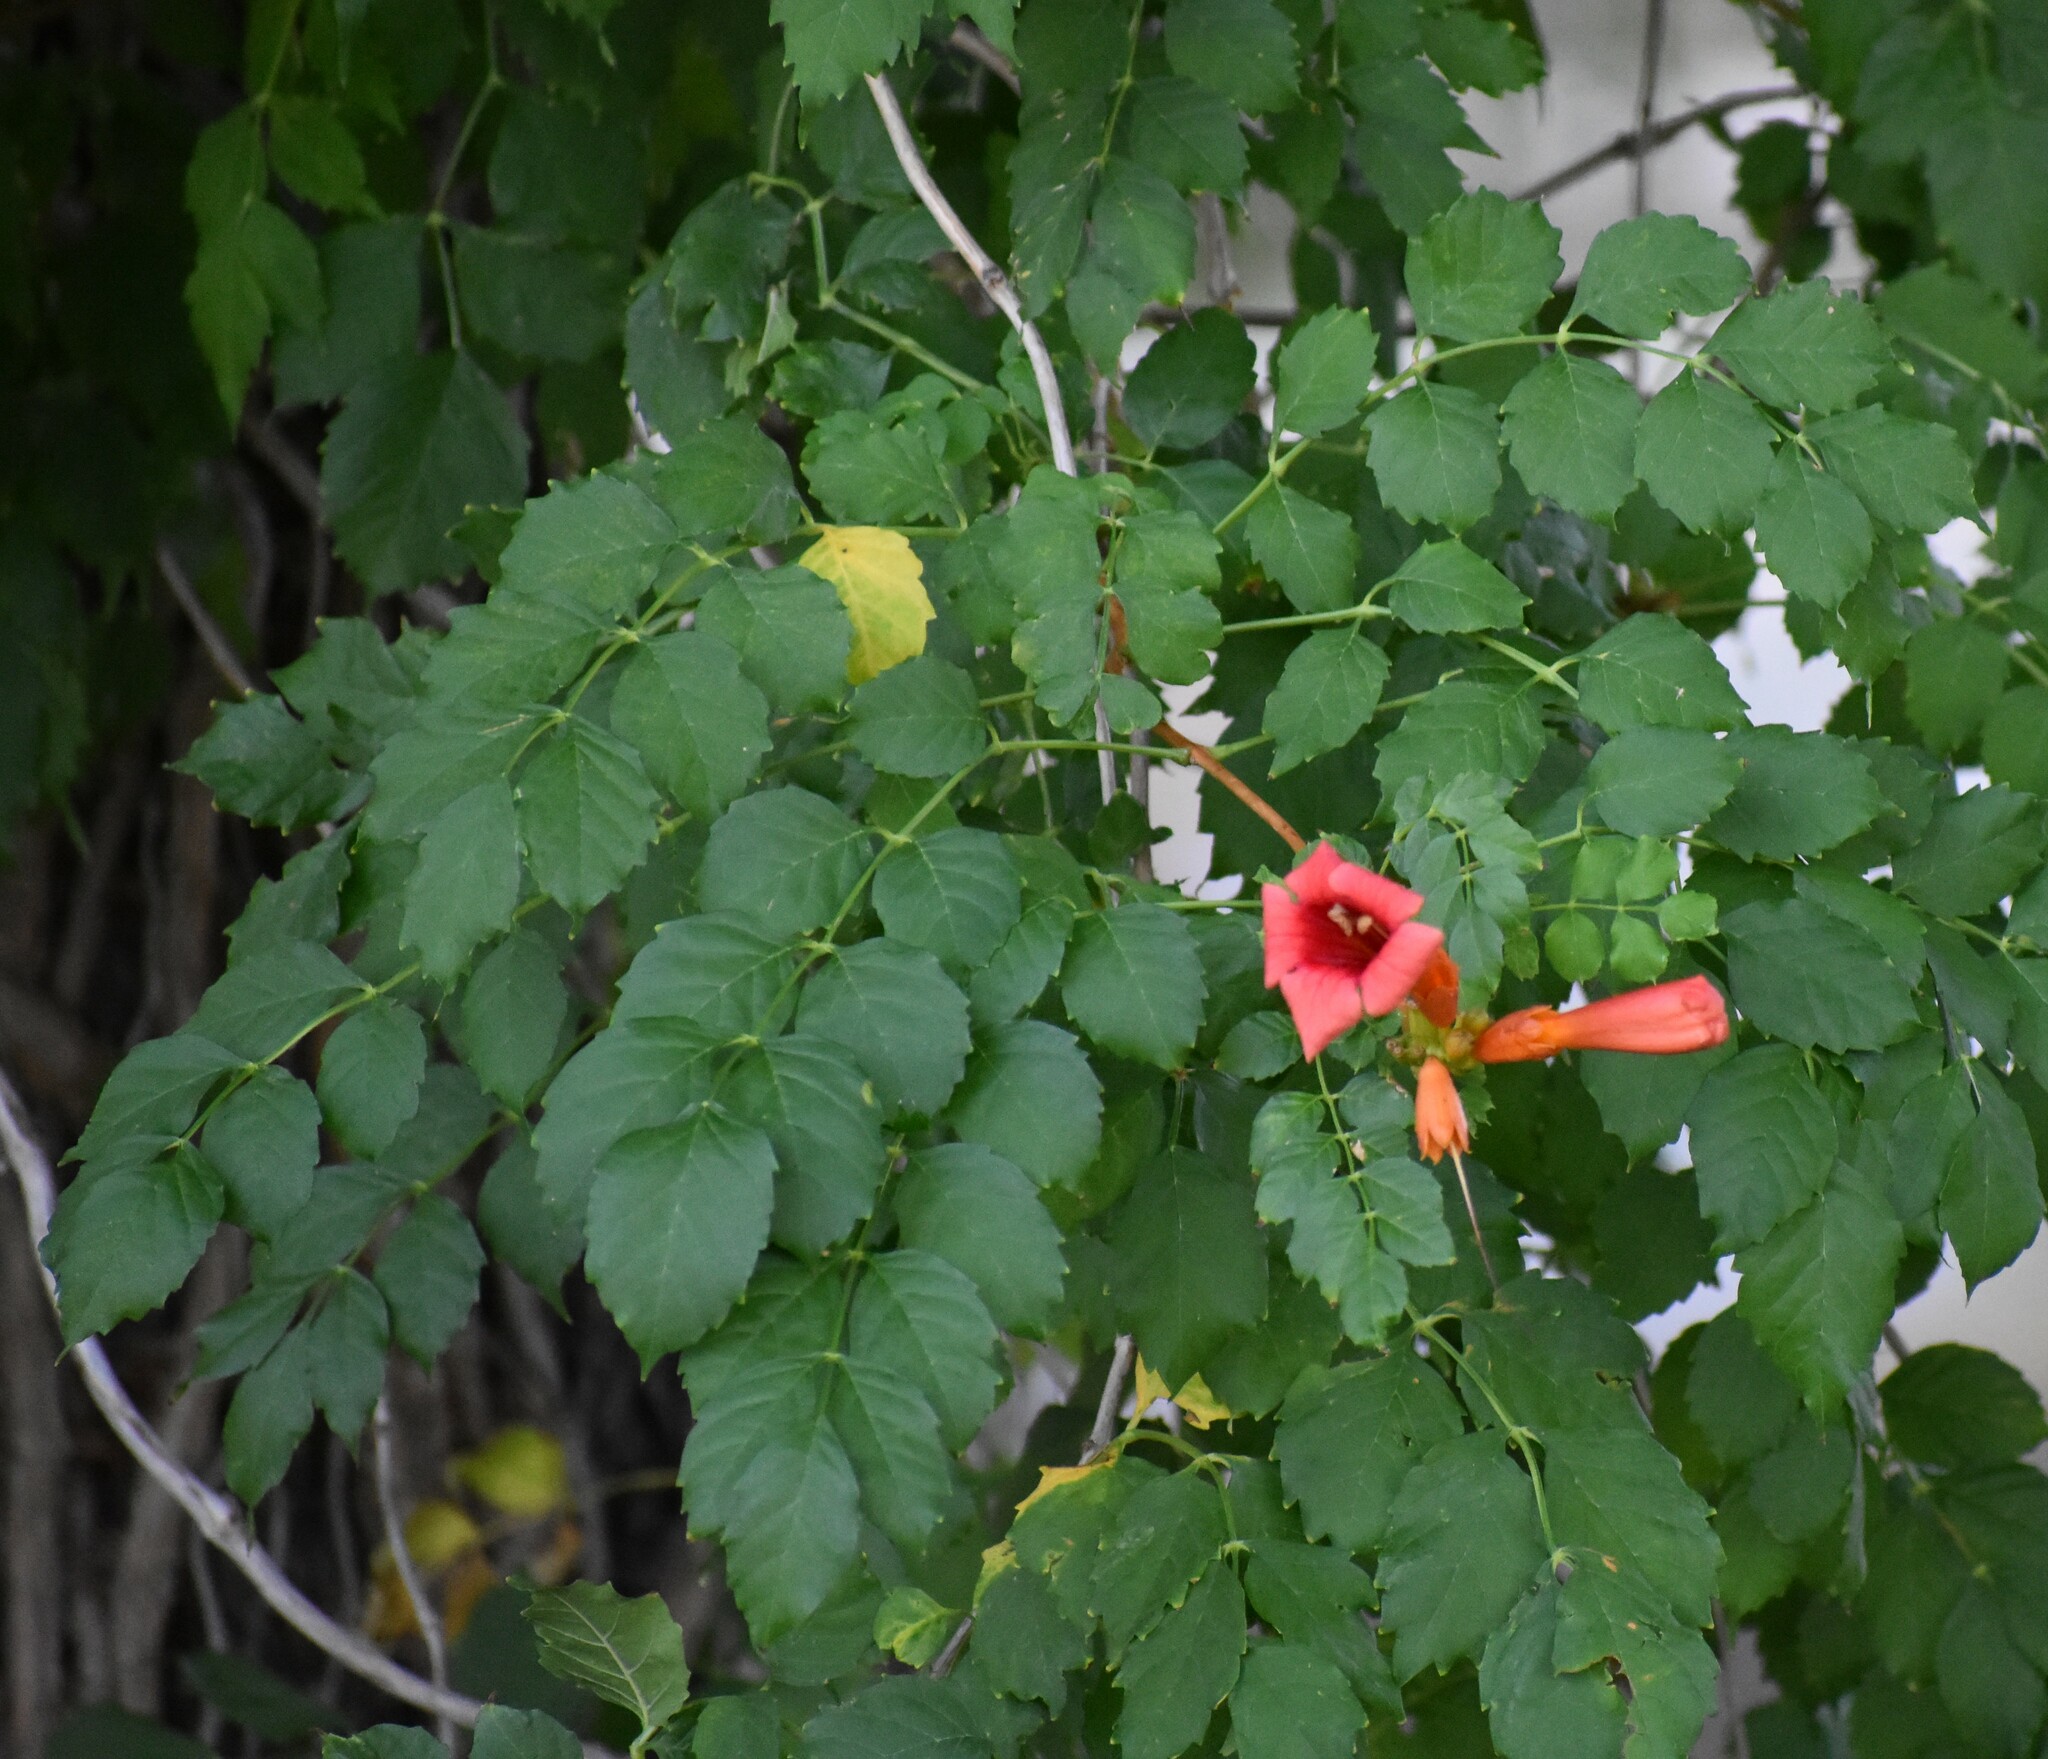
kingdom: Plantae
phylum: Tracheophyta
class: Magnoliopsida
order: Lamiales
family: Bignoniaceae
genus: Campsis
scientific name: Campsis radicans
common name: Trumpet-creeper
